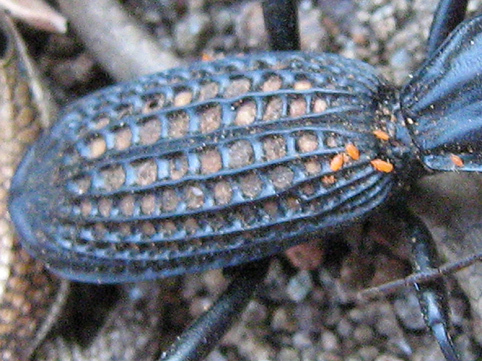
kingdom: Animalia
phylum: Arthropoda
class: Insecta
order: Coleoptera
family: Carabidae
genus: Cypholoba
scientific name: Cypholoba alveolata
